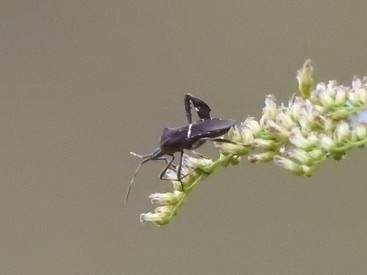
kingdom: Animalia
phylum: Arthropoda
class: Insecta
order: Hemiptera
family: Coreidae
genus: Leptoglossus
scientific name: Leptoglossus phyllopus
